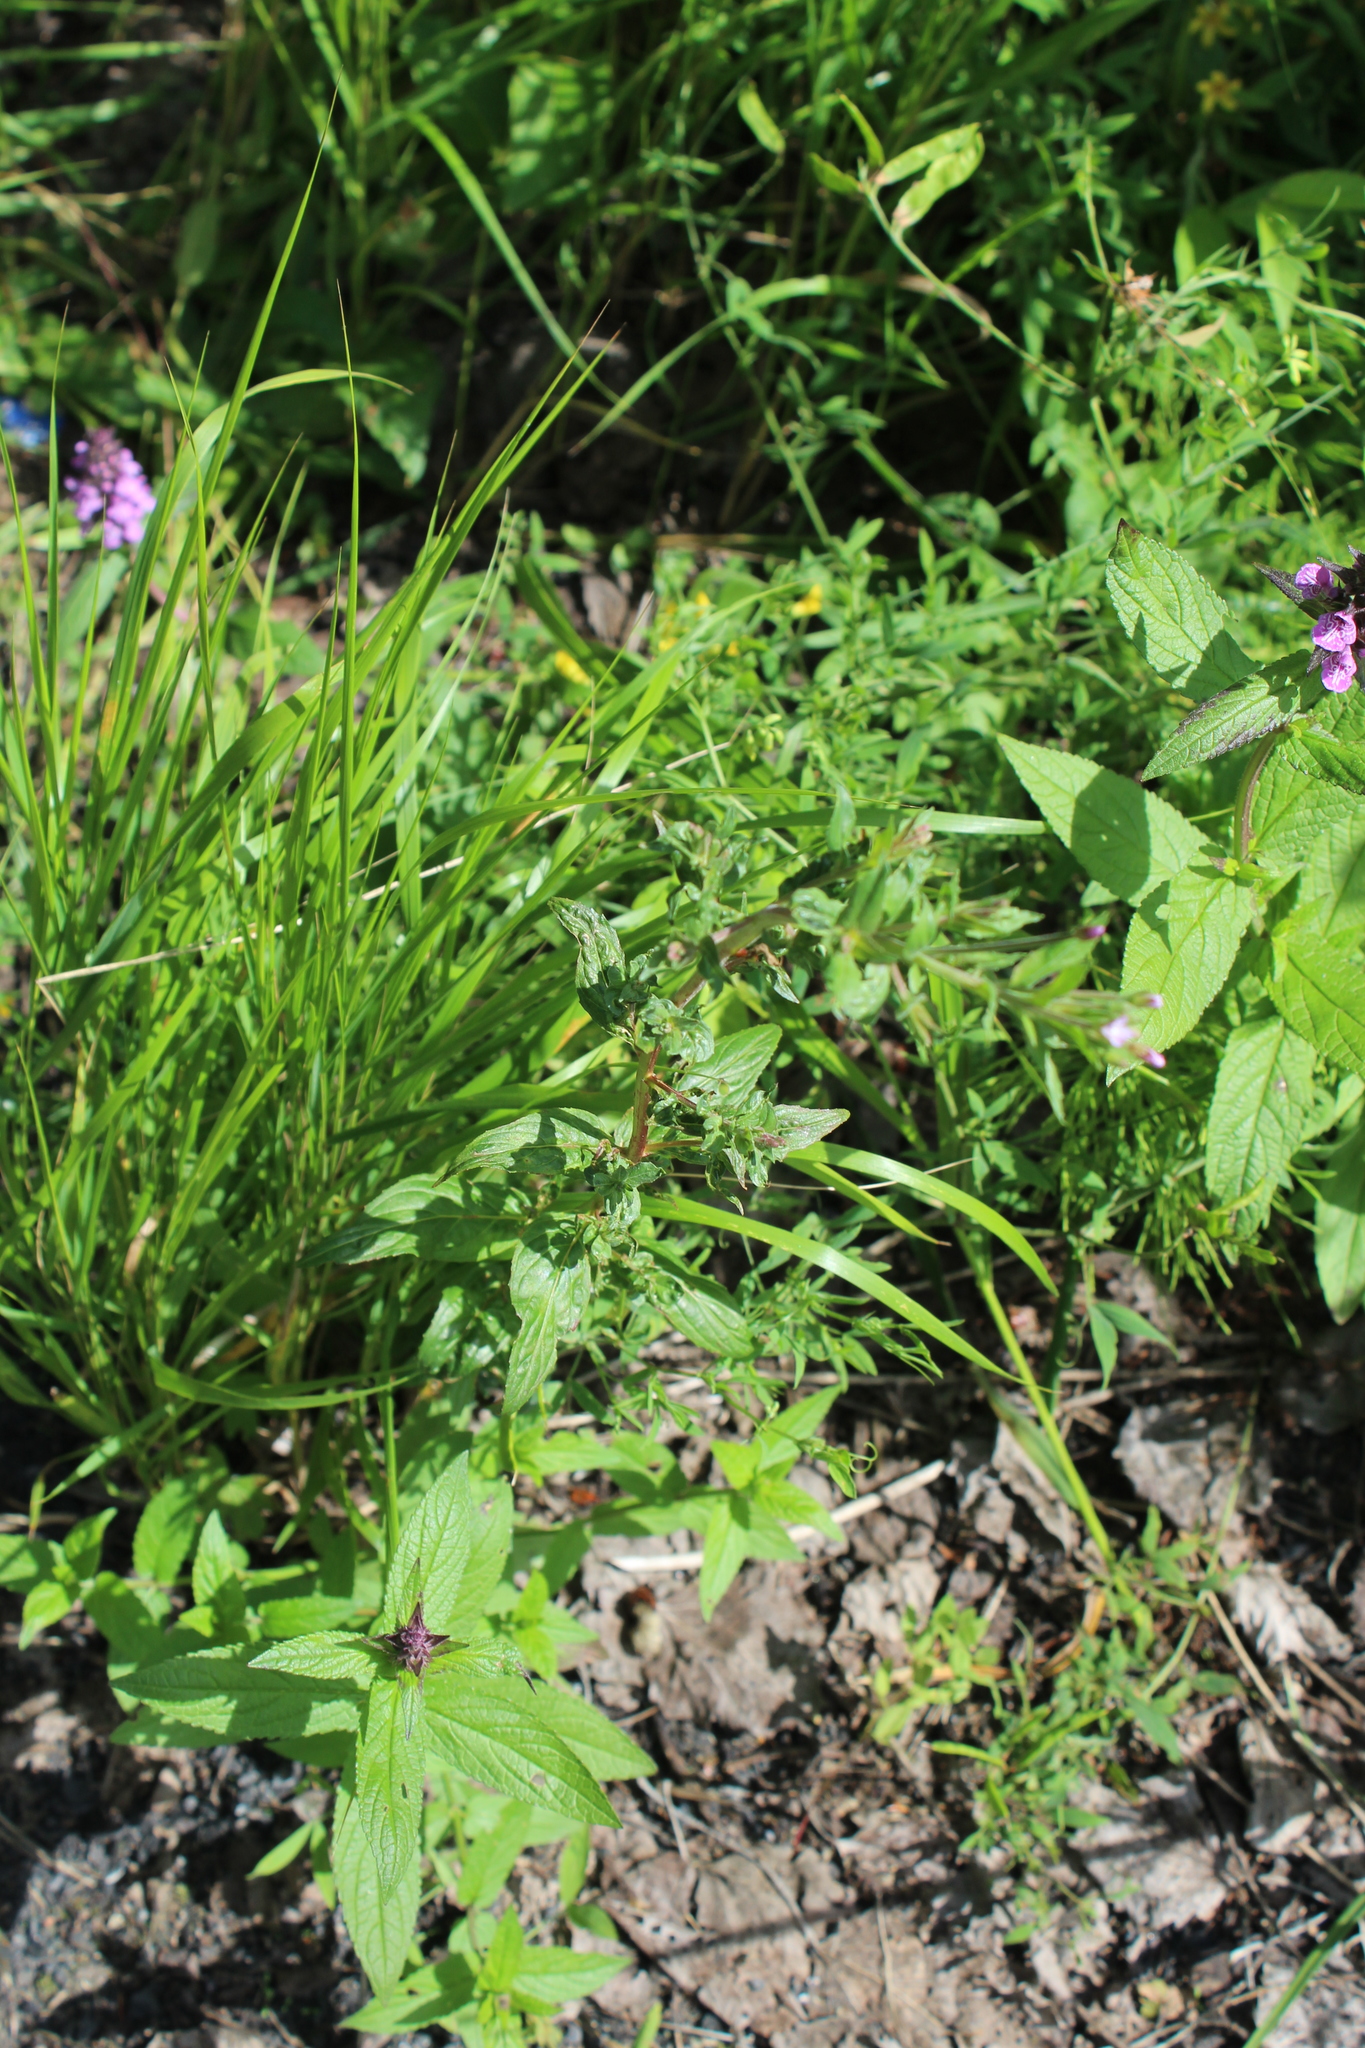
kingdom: Plantae
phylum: Tracheophyta
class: Magnoliopsida
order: Myrtales
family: Onagraceae
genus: Epilobium
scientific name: Epilobium ciliatum
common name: American willowherb
